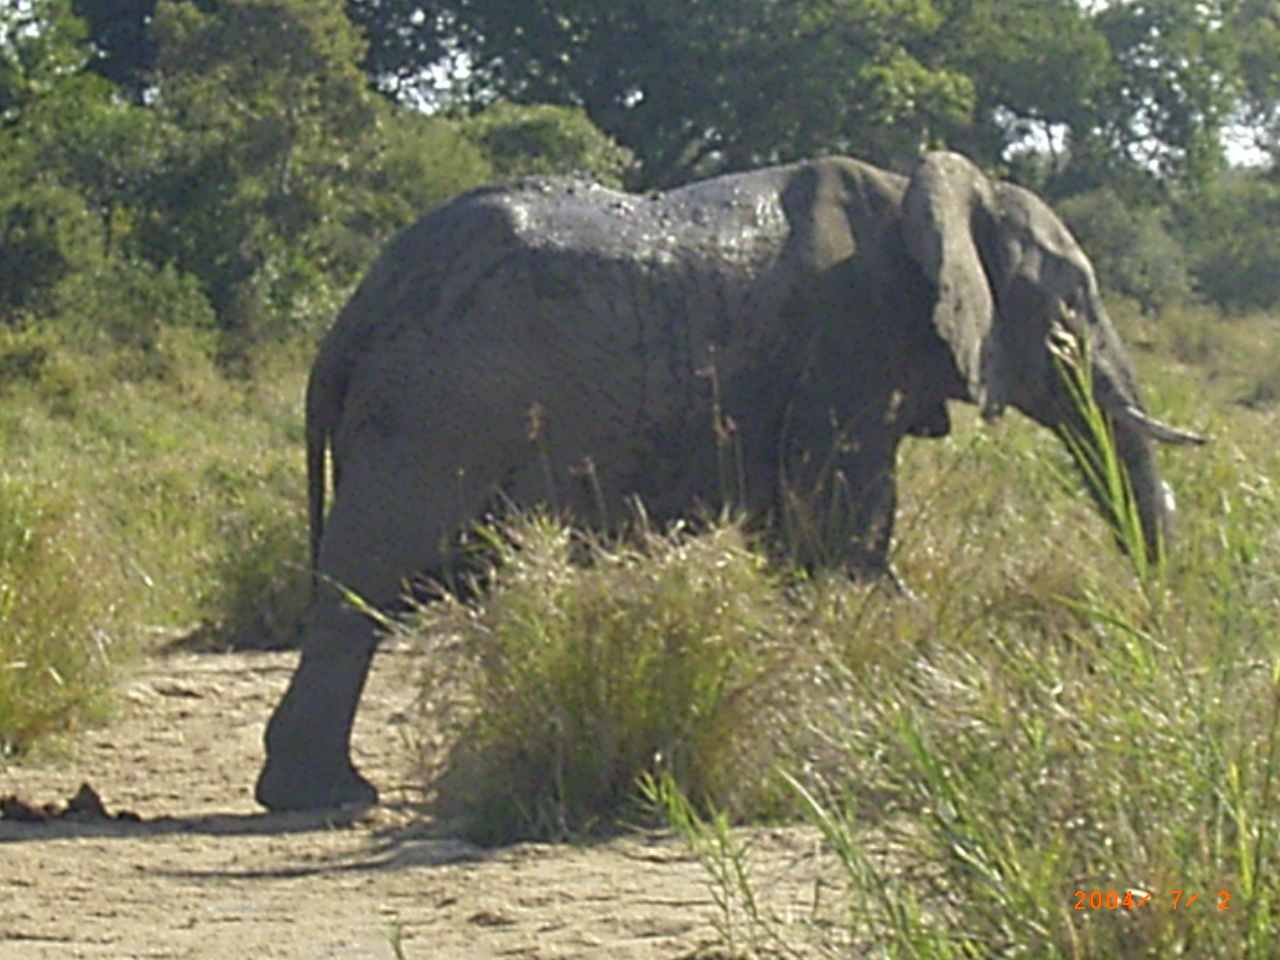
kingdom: Animalia
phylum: Chordata
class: Mammalia
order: Proboscidea
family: Elephantidae
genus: Loxodonta
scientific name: Loxodonta africana
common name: African elephant
